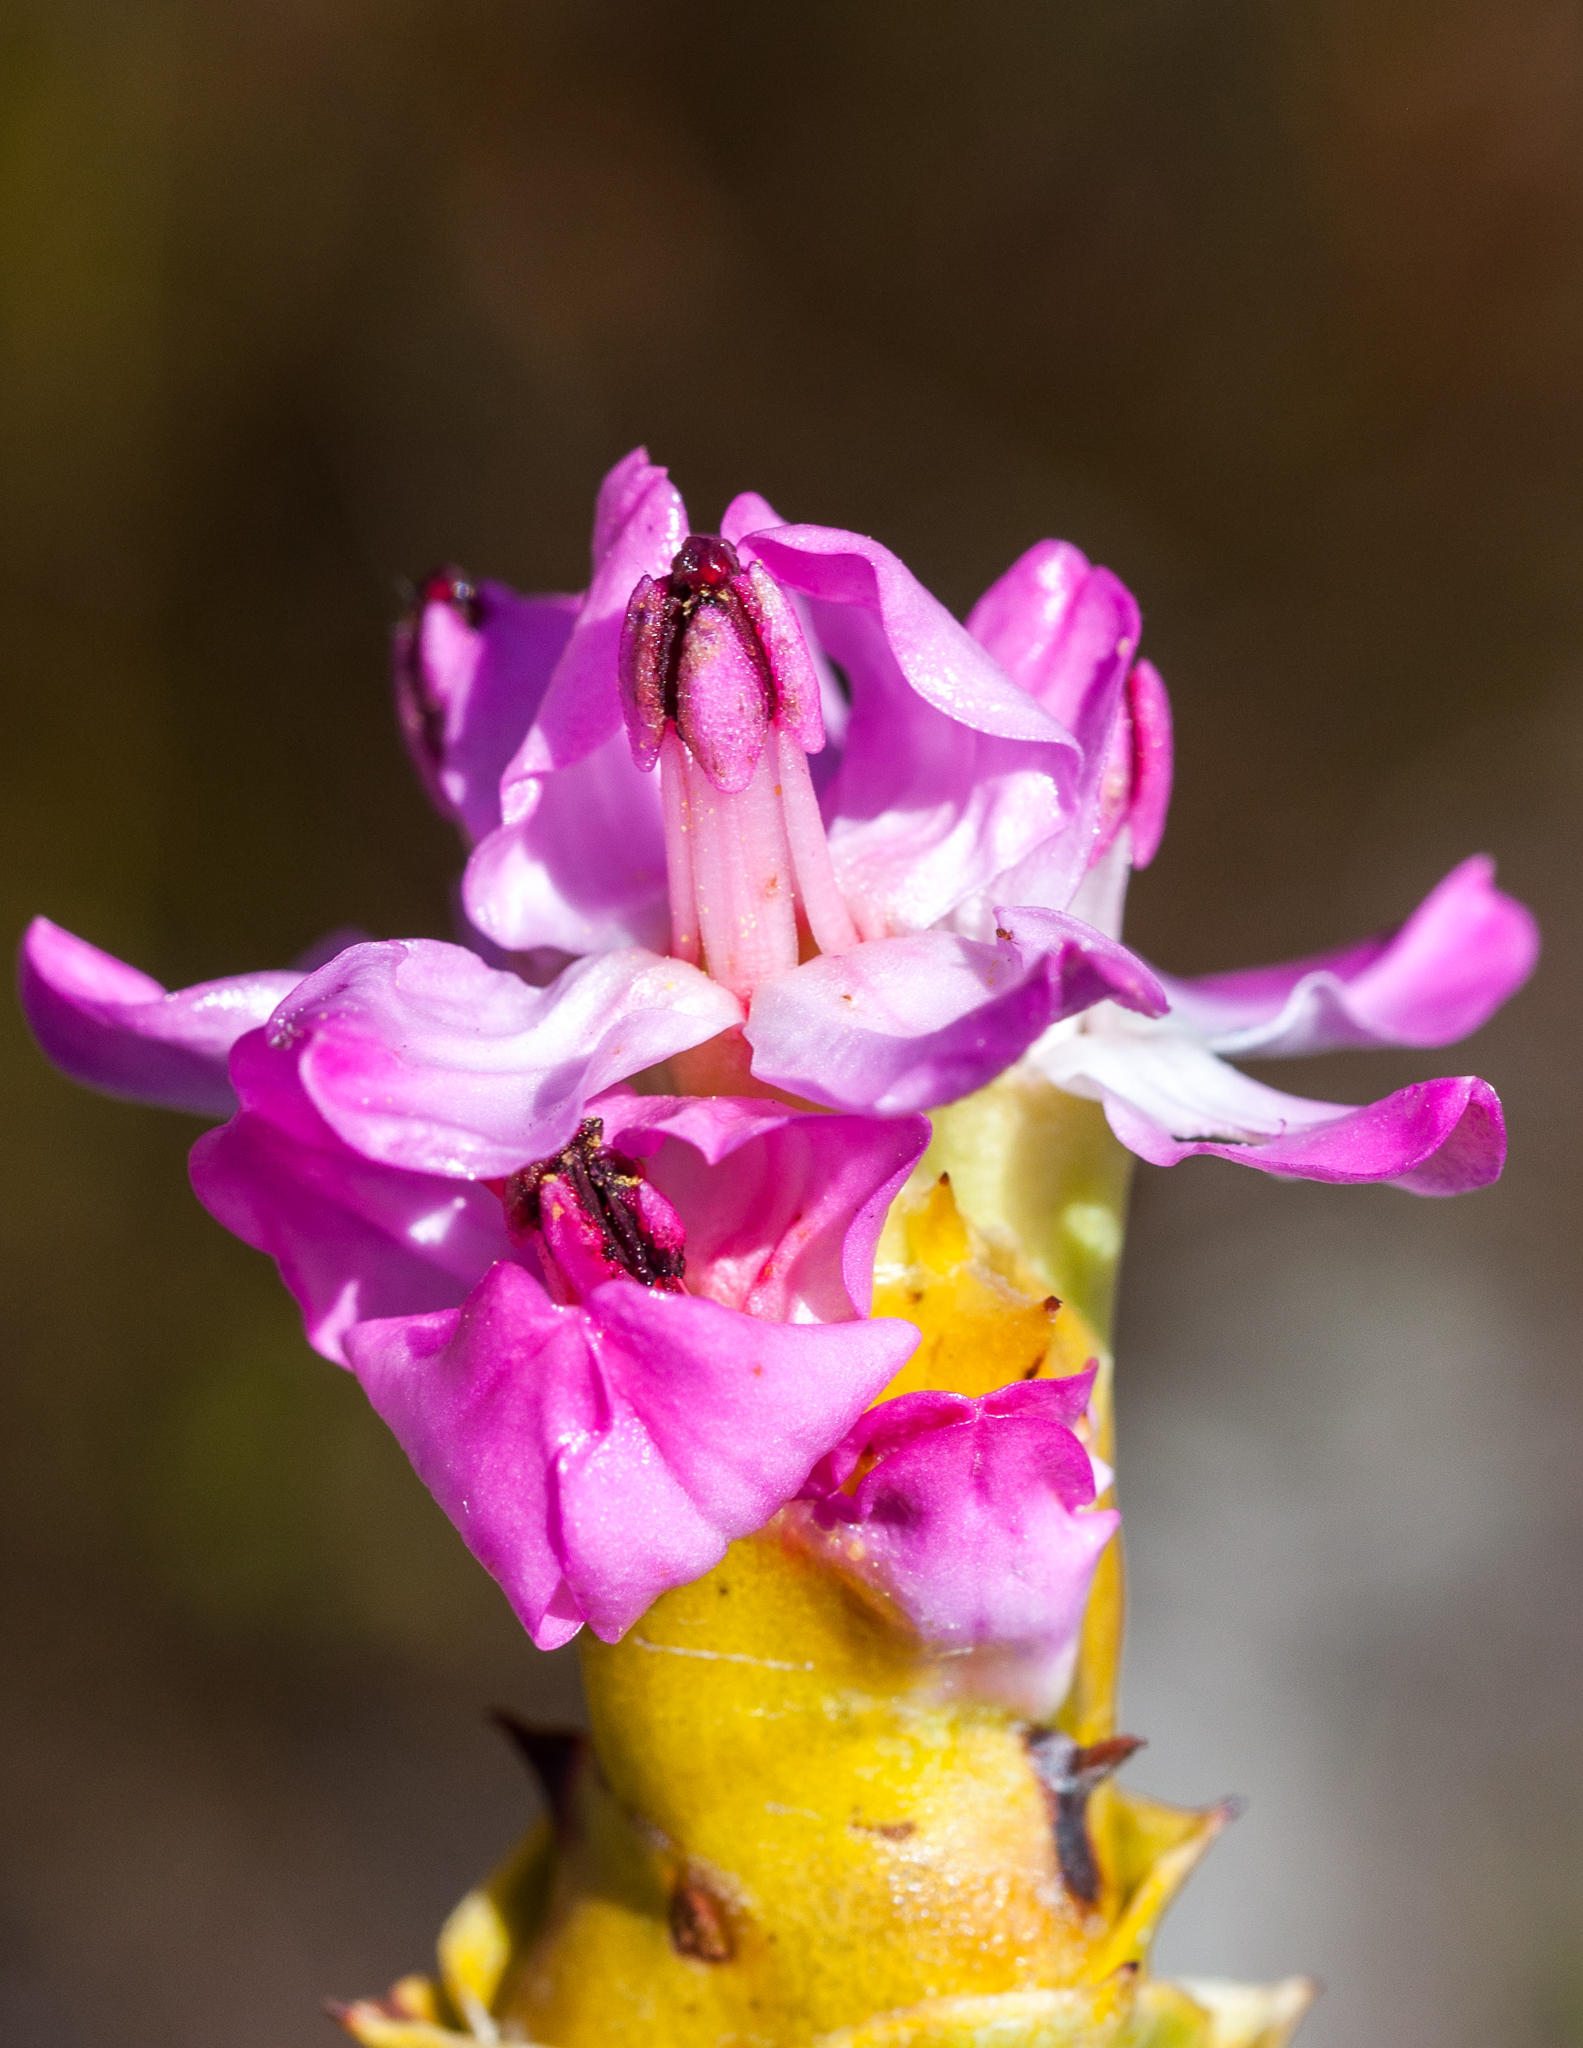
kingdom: Plantae
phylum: Tracheophyta
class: Magnoliopsida
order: Myrtales
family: Penaeaceae
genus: Saltera
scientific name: Saltera sarcocolla
